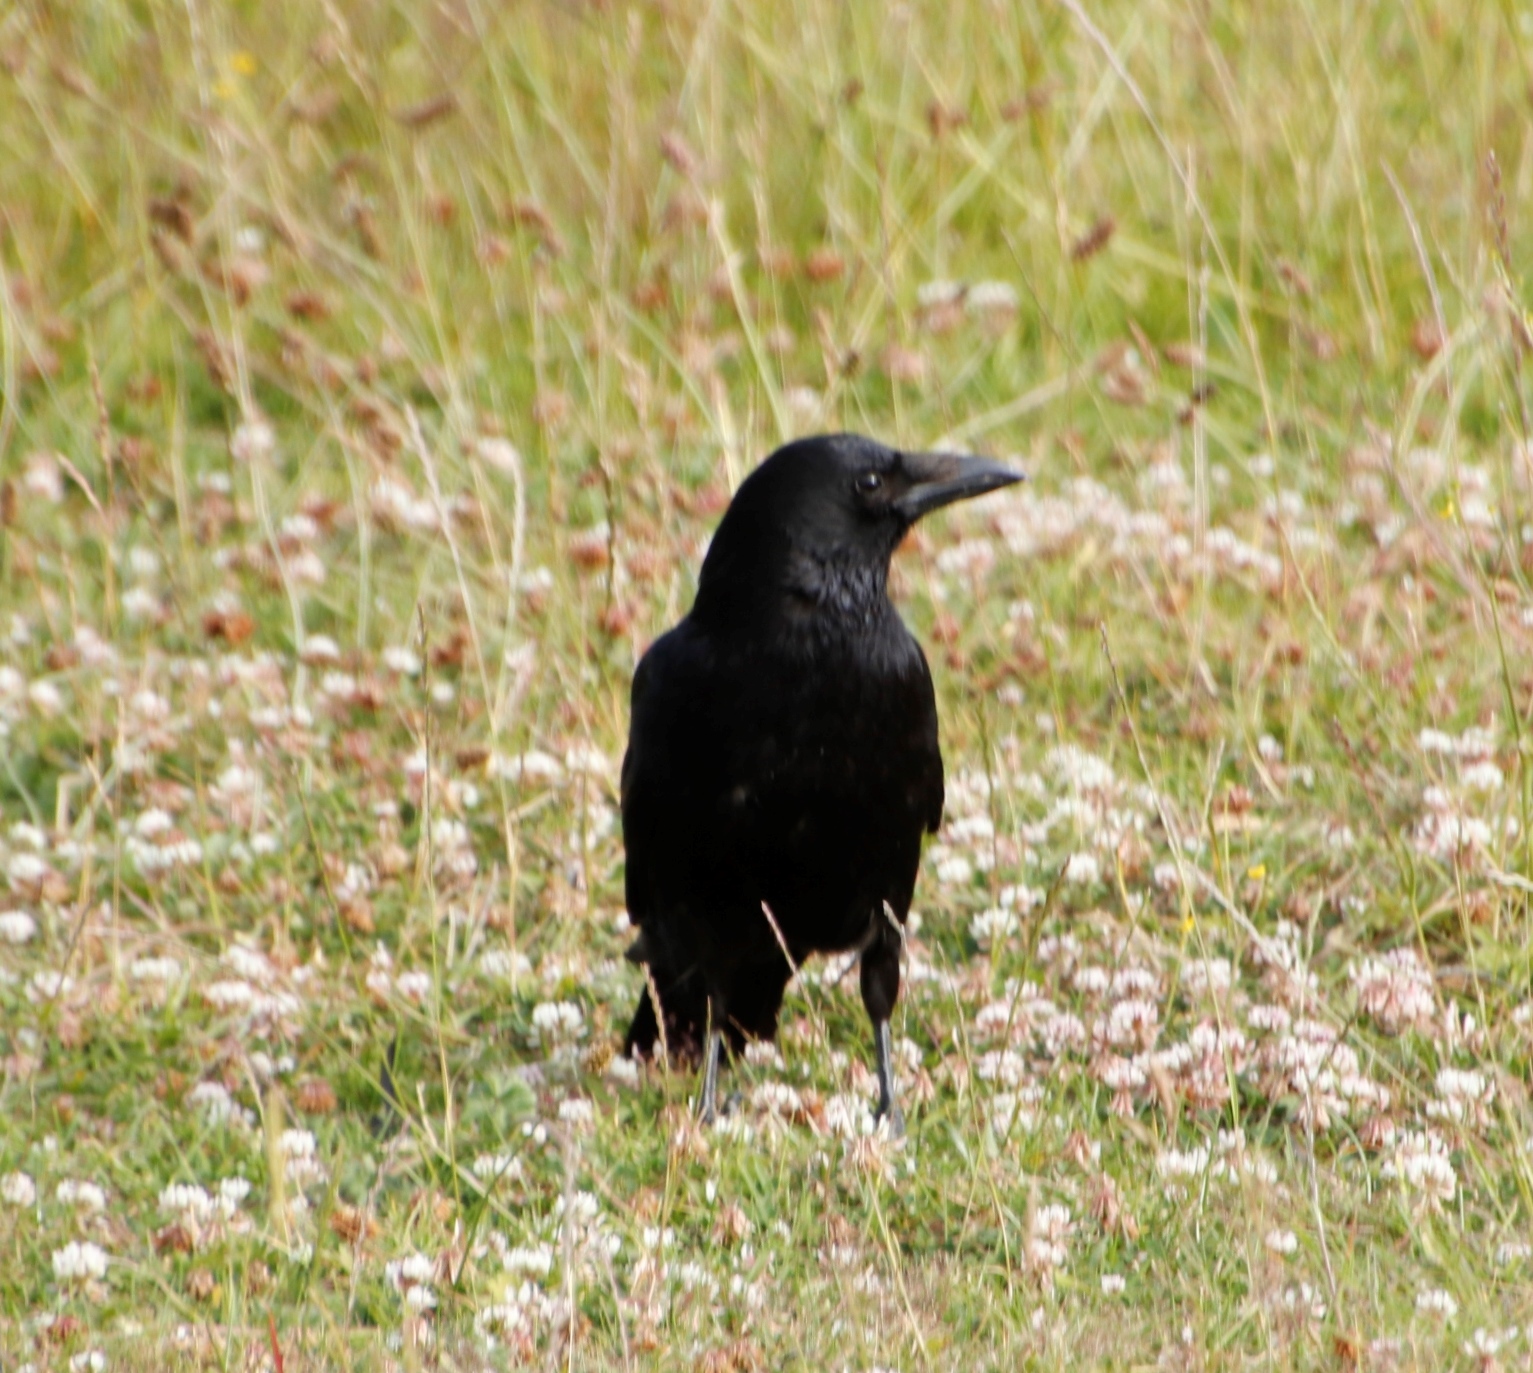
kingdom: Animalia
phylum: Chordata
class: Aves
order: Passeriformes
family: Corvidae
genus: Corvus
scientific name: Corvus corone
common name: Carrion crow
